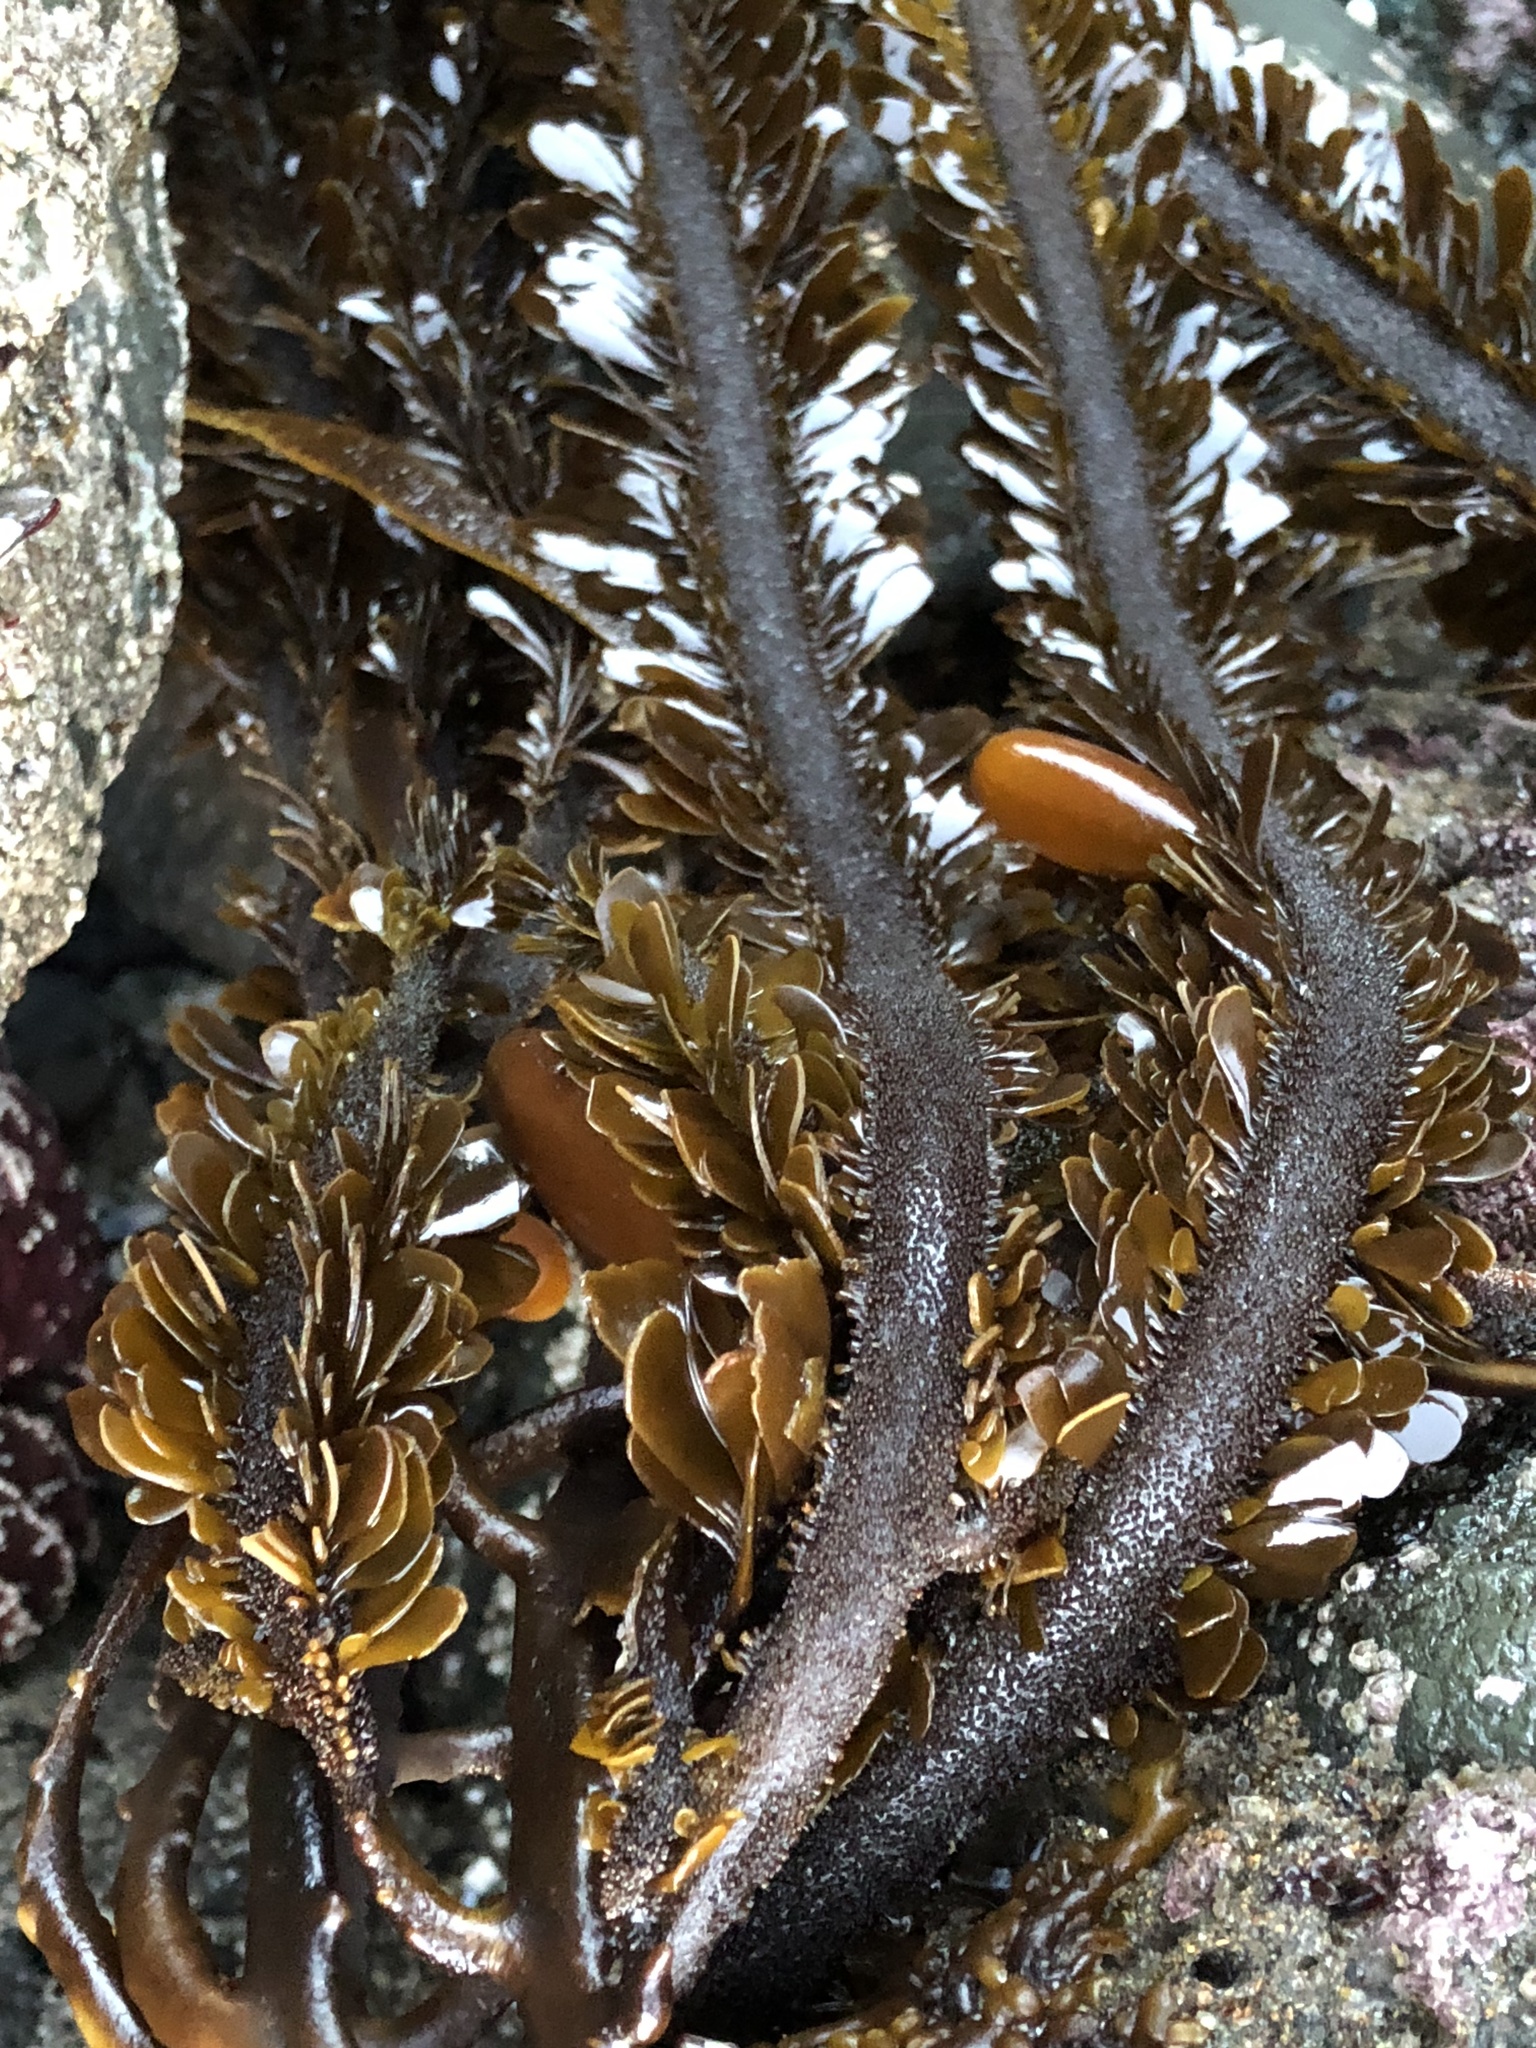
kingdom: Chromista
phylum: Ochrophyta
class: Phaeophyceae
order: Laminariales
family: Lessoniaceae
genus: Egregia
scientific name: Egregia menziesii
